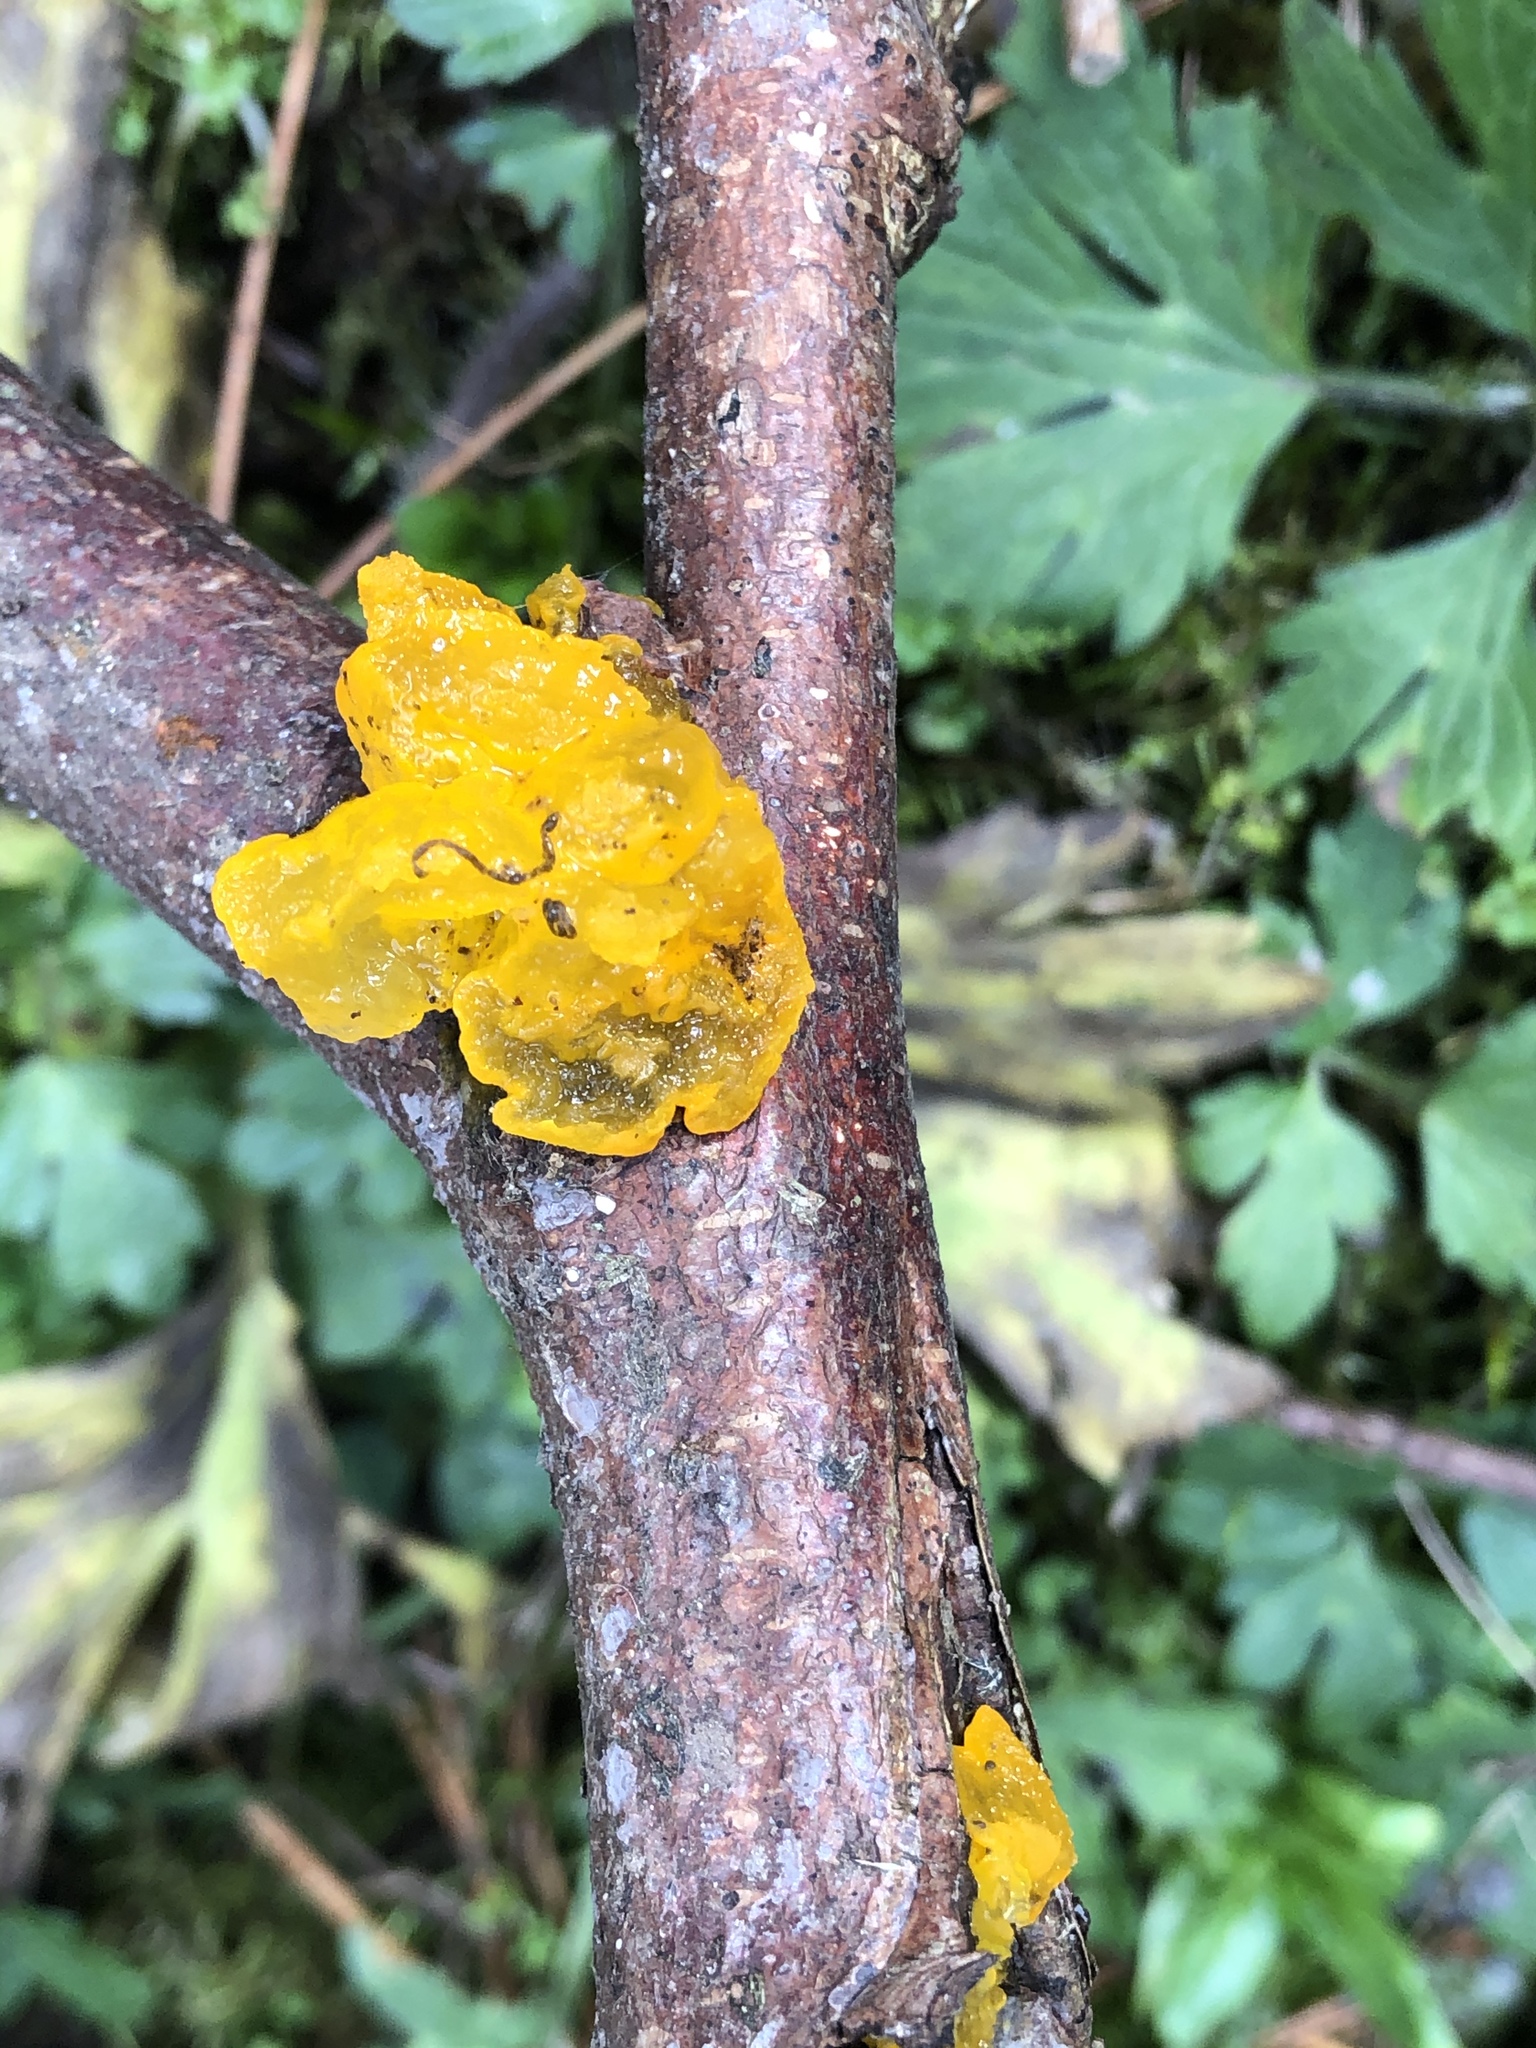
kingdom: Fungi
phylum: Basidiomycota
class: Tremellomycetes
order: Tremellales
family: Tremellaceae
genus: Tremella
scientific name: Tremella mesenterica
